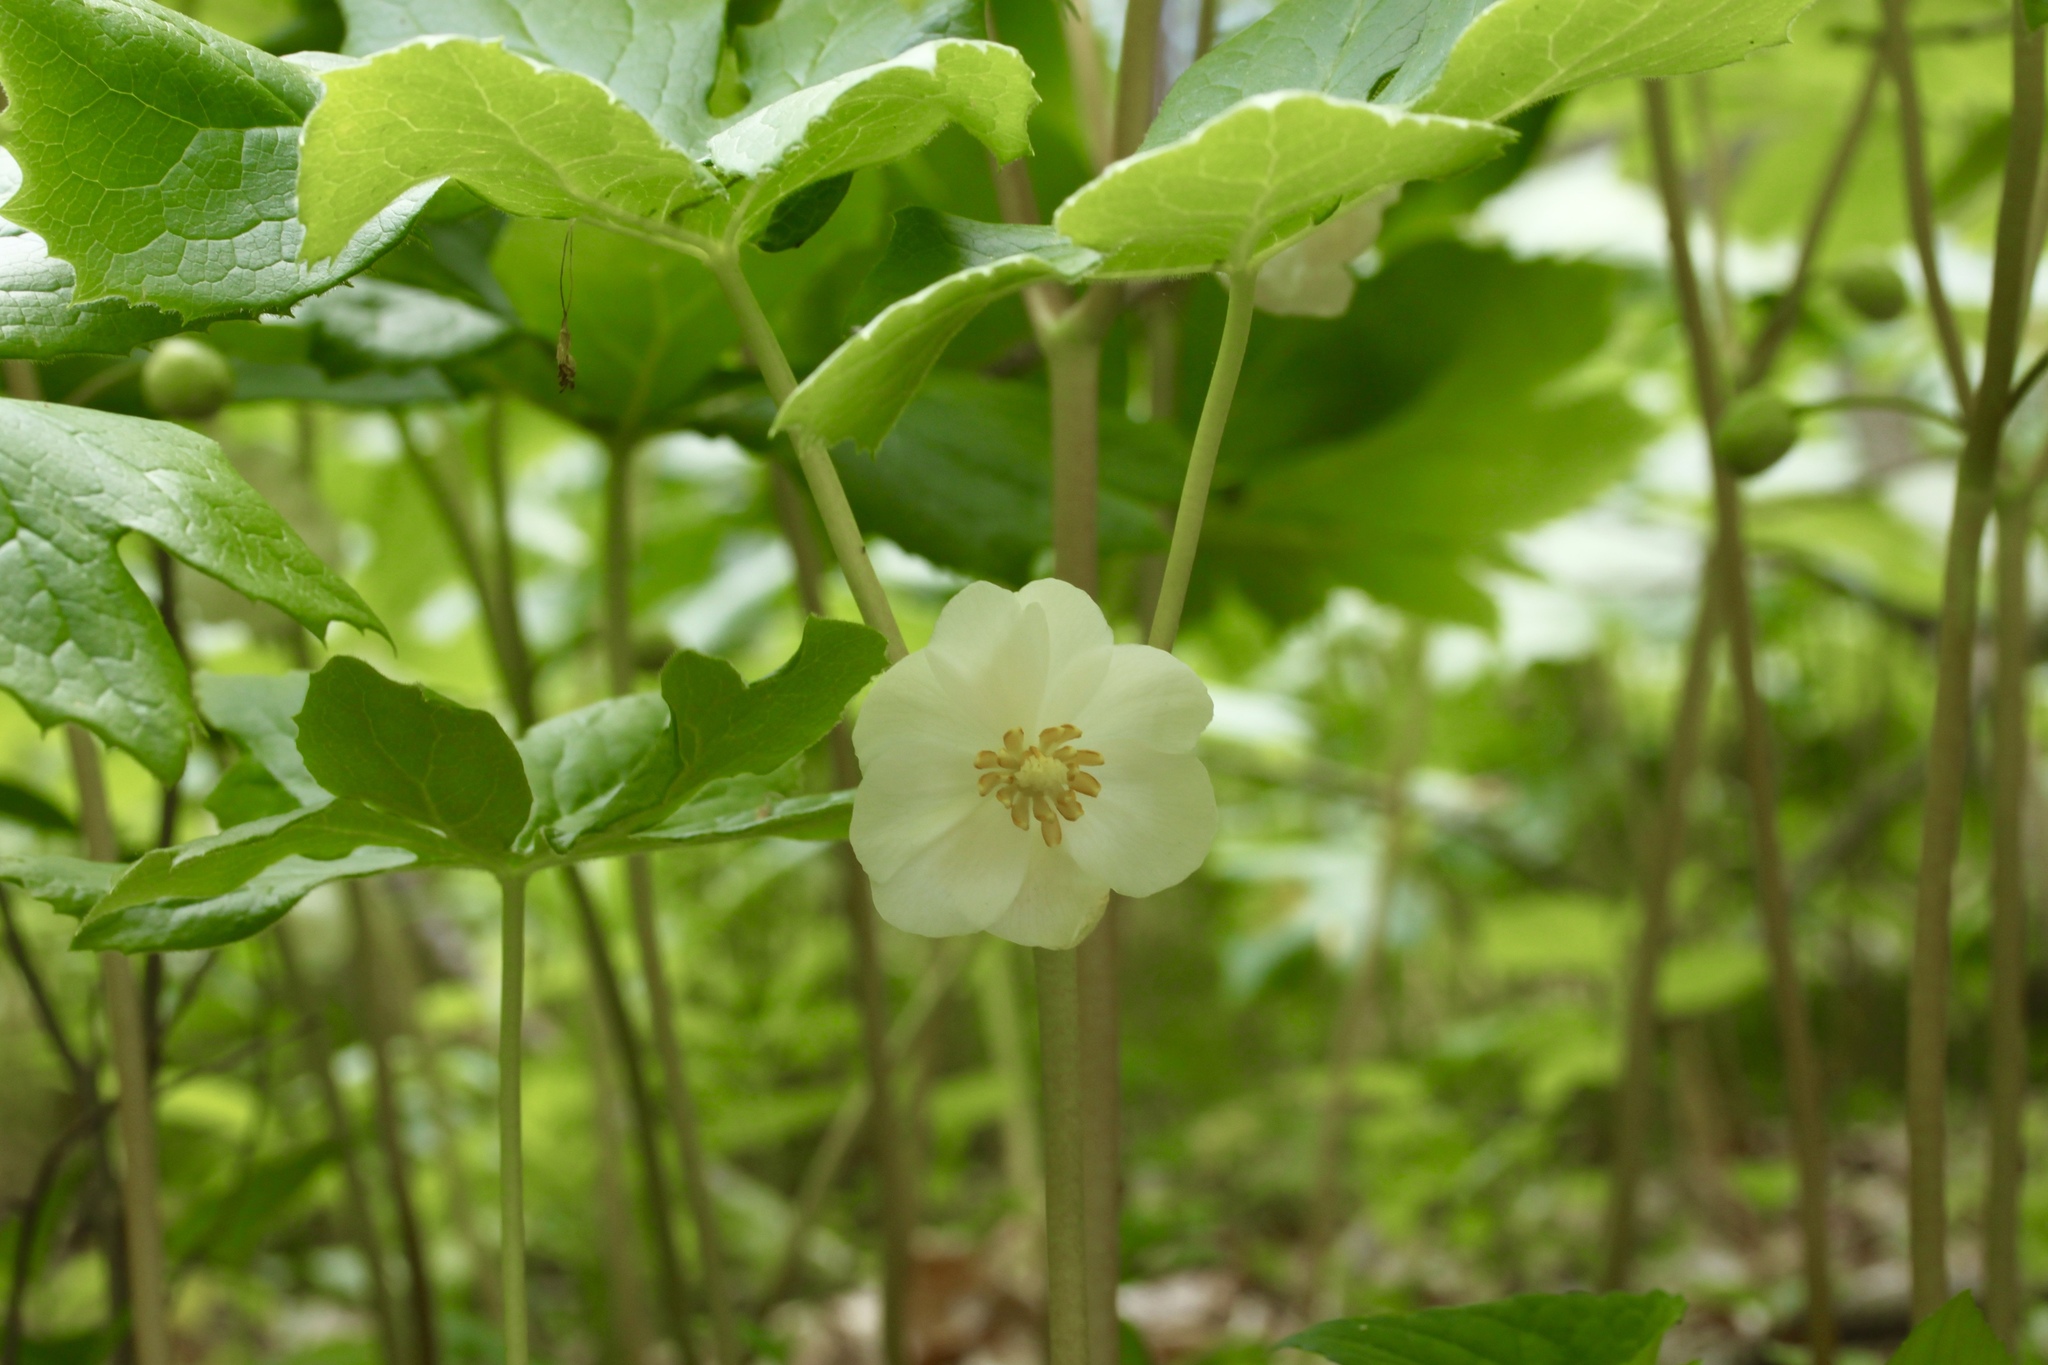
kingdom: Plantae
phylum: Tracheophyta
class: Magnoliopsida
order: Ranunculales
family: Berberidaceae
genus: Podophyllum
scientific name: Podophyllum peltatum
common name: Wild mandrake
